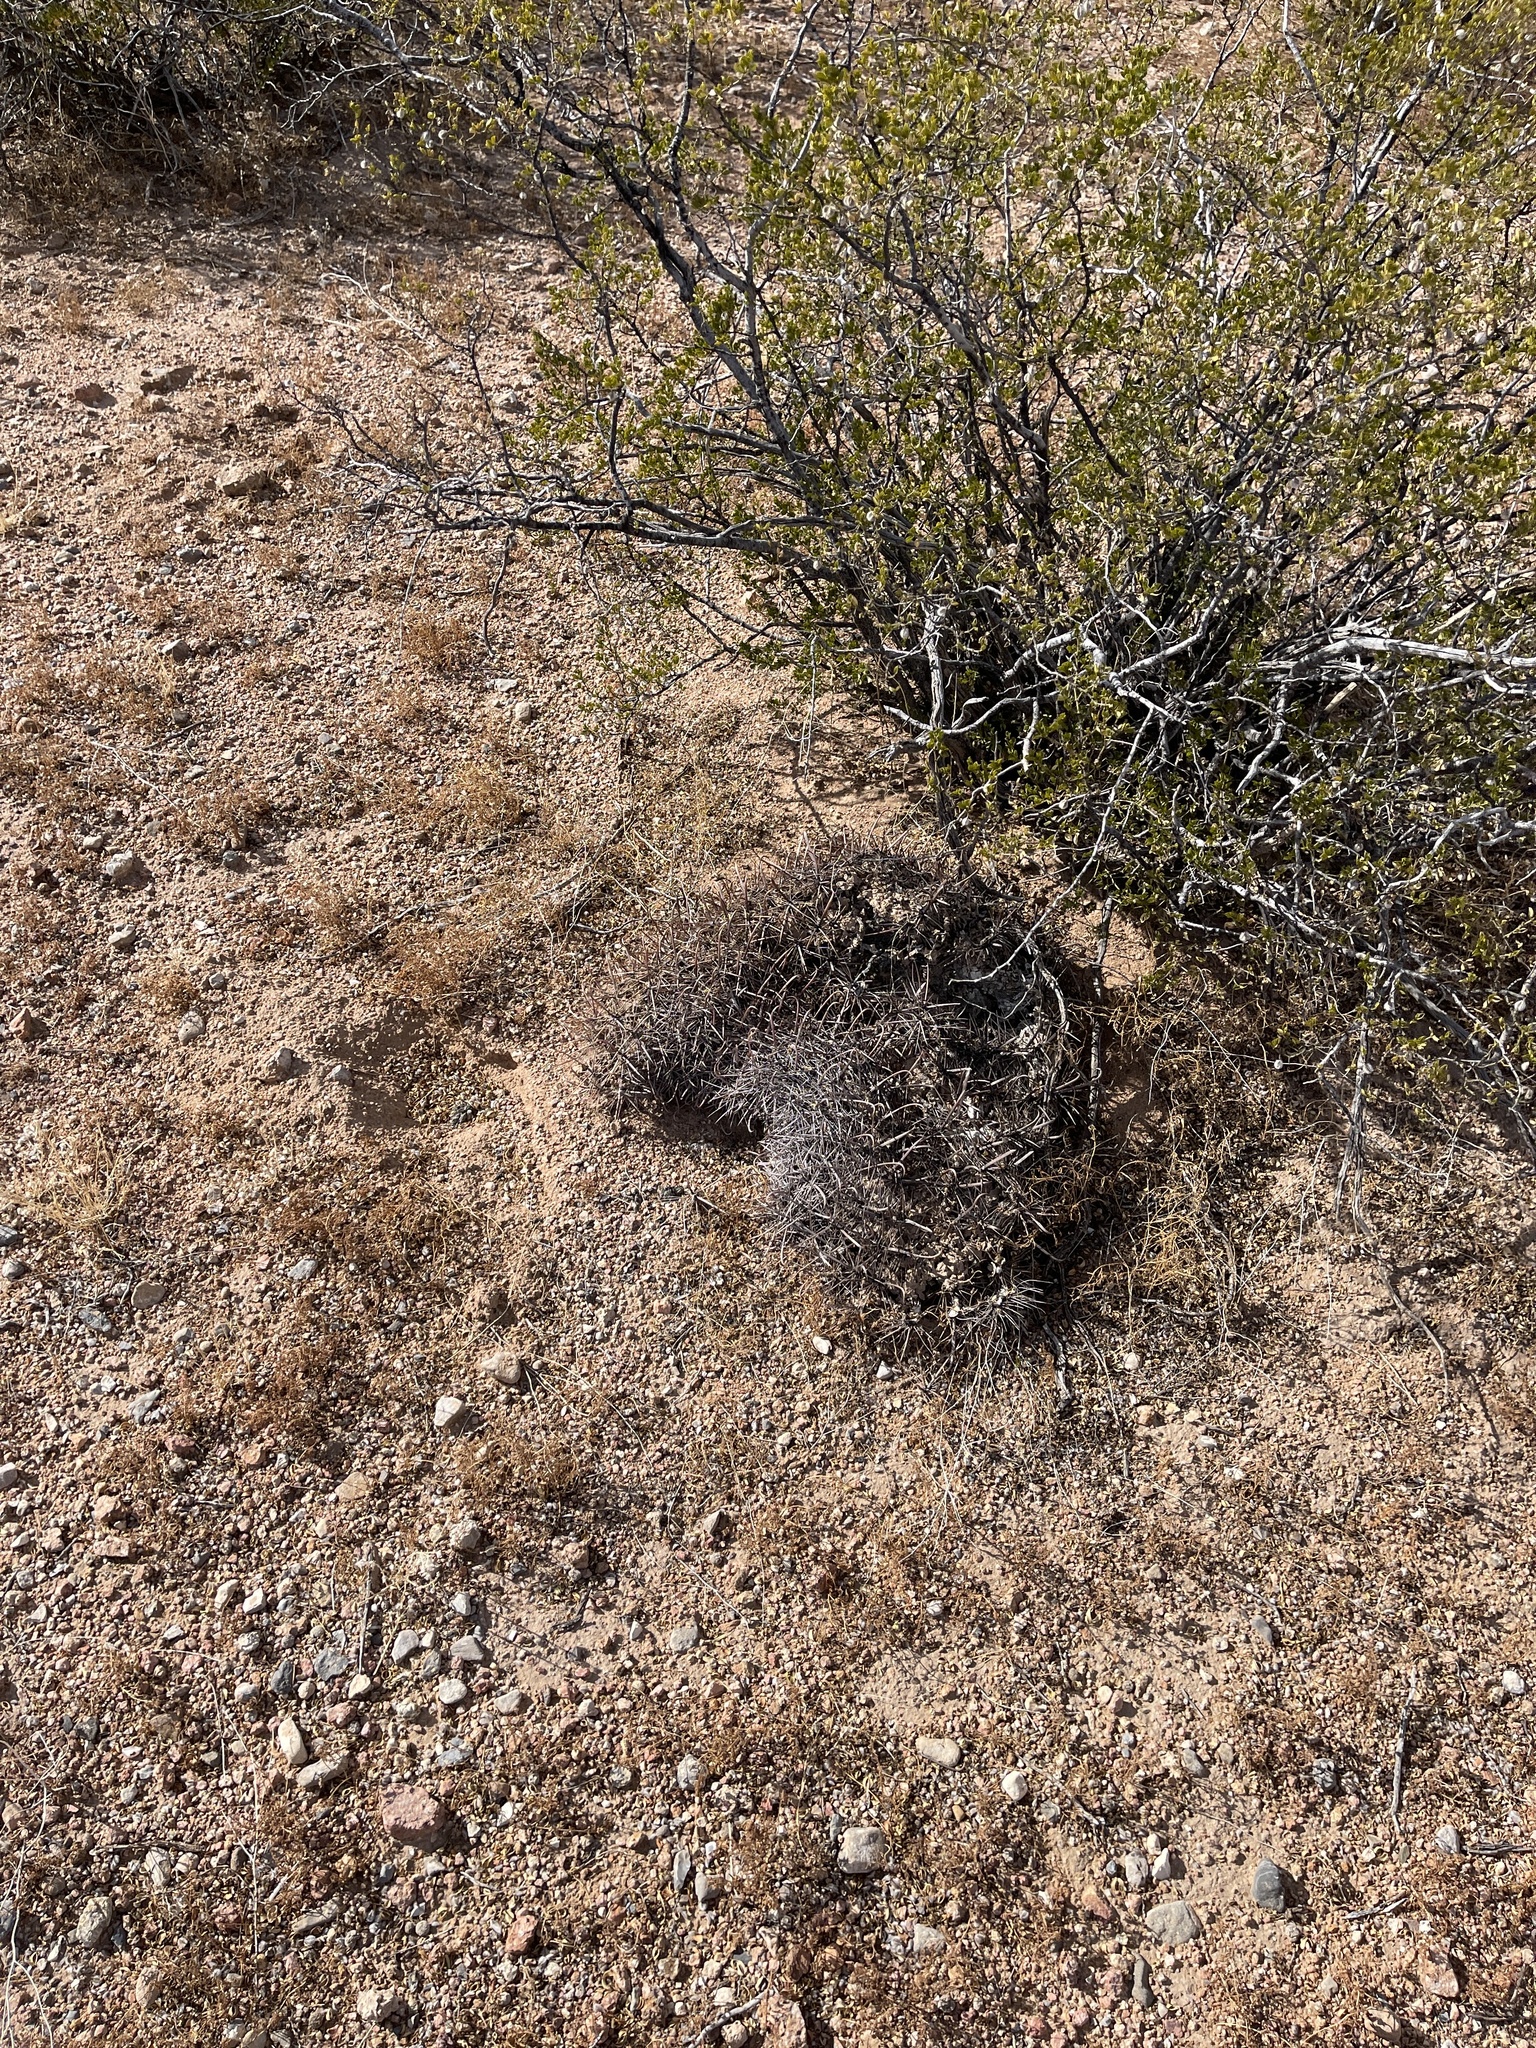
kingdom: Plantae
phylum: Tracheophyta
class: Magnoliopsida
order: Caryophyllales
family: Cactaceae
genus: Ferocactus
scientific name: Ferocactus wislizeni
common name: Candy barrel cactus
